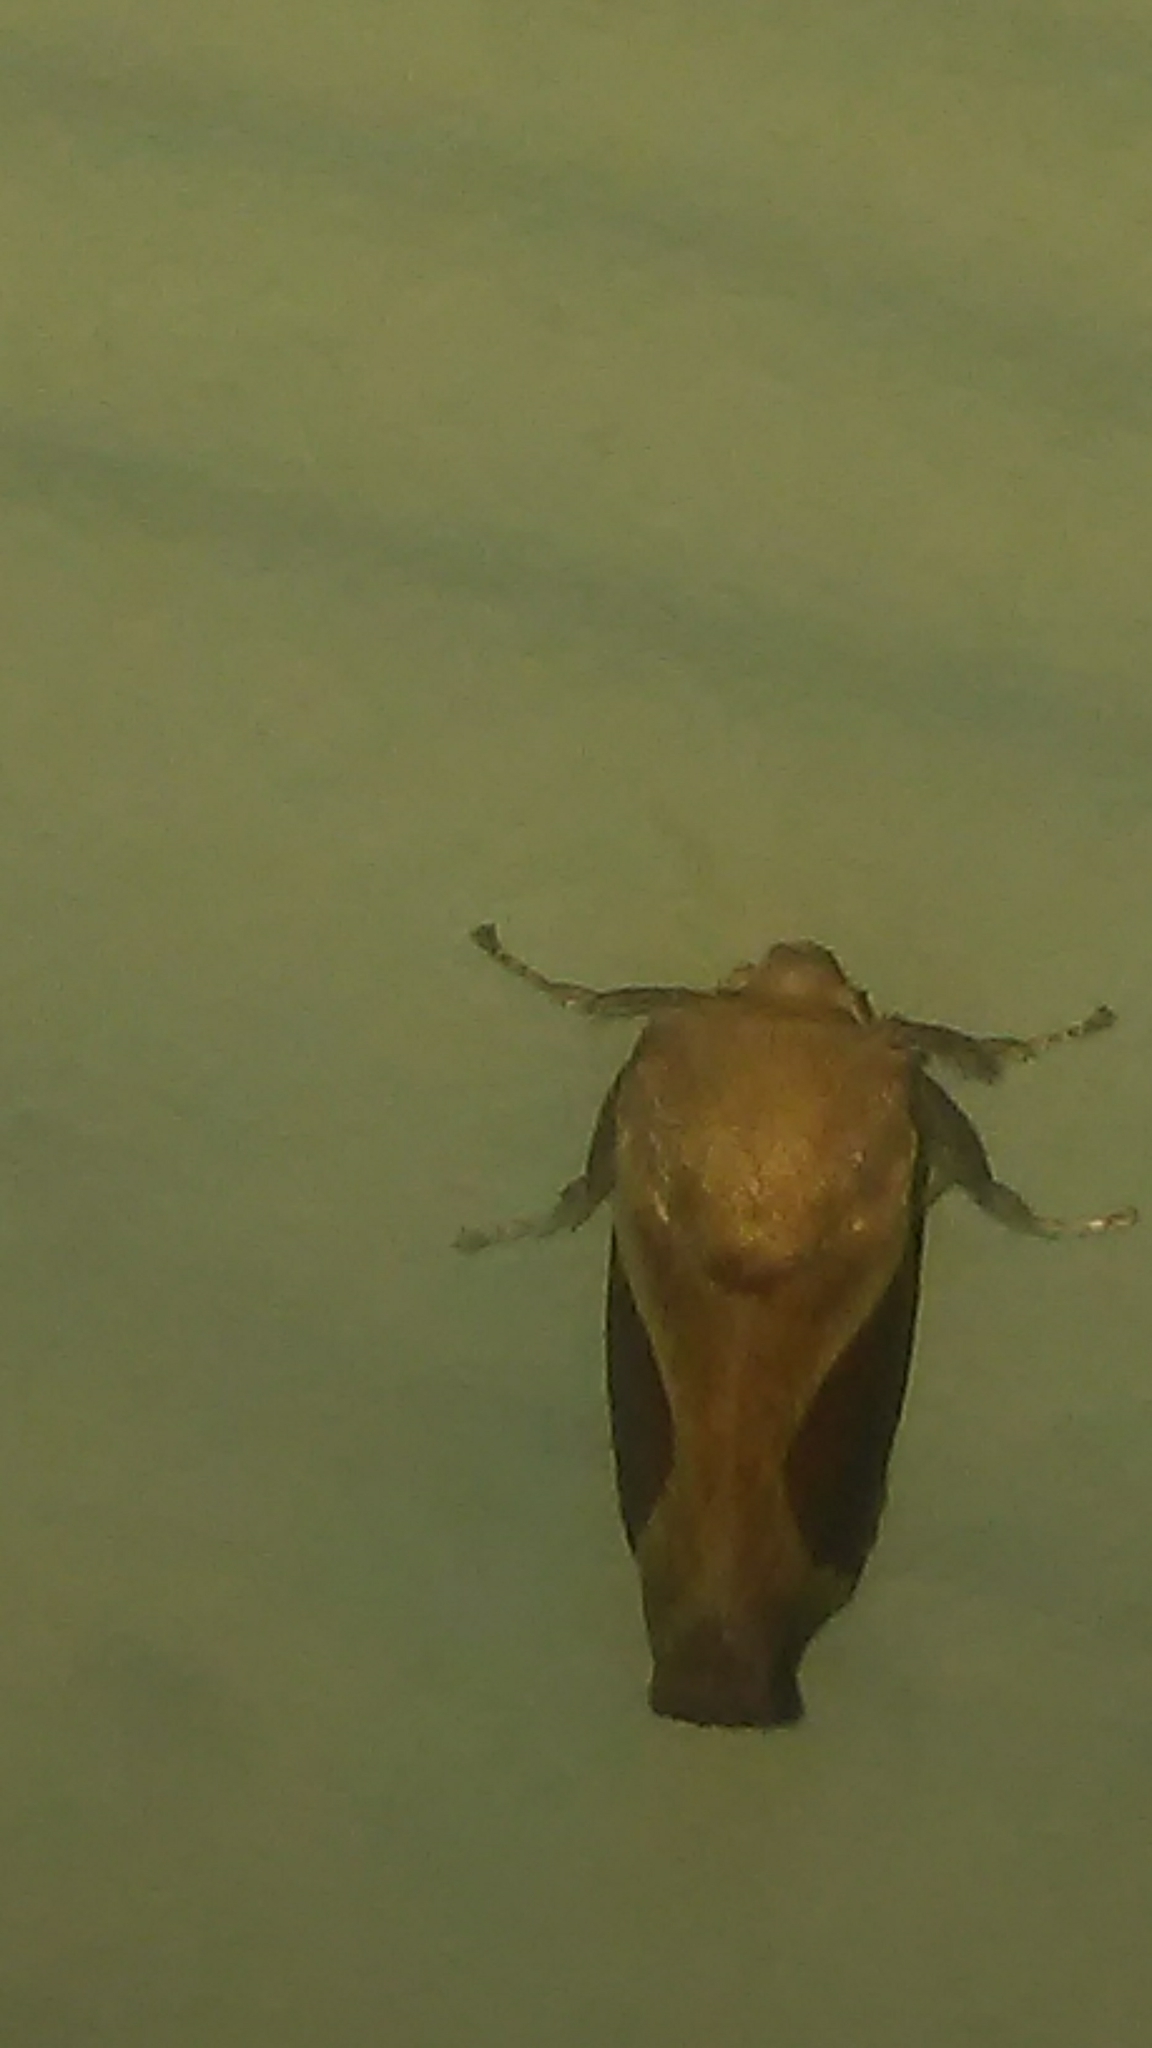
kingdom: Animalia
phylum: Arthropoda
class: Insecta
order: Lepidoptera
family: Limacodidae
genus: Prolimacodes
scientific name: Prolimacodes badia
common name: Skiff moth
